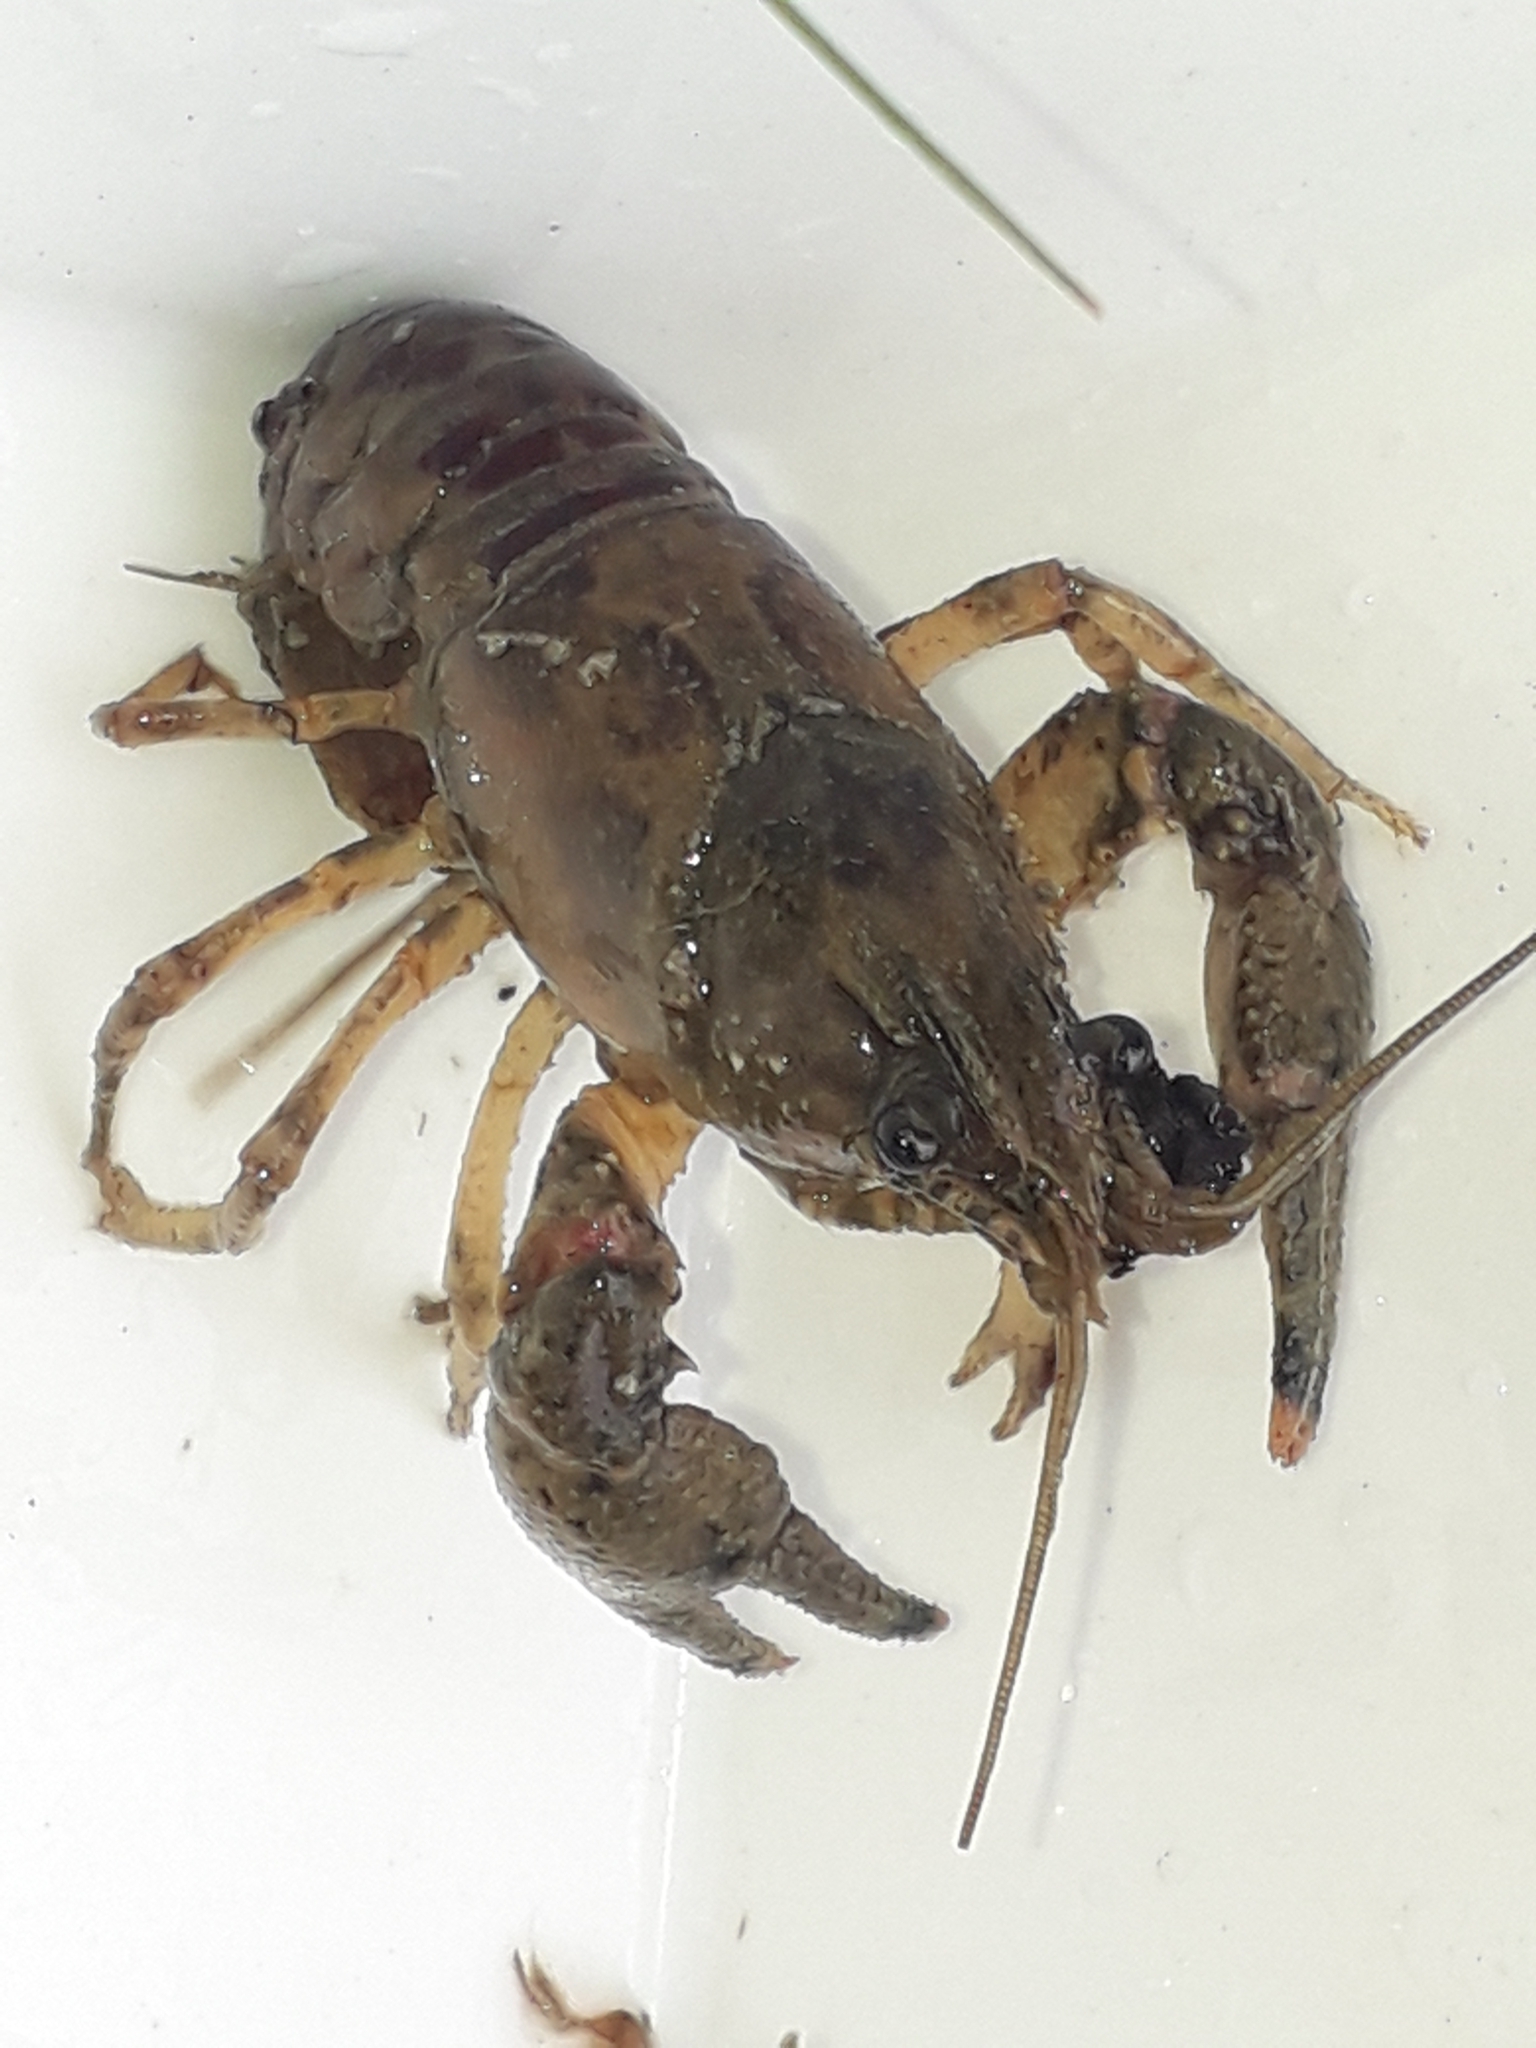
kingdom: Animalia
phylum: Arthropoda
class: Malacostraca
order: Decapoda
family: Cambaridae
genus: Faxonius
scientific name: Faxonius limosus
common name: American crayfish
